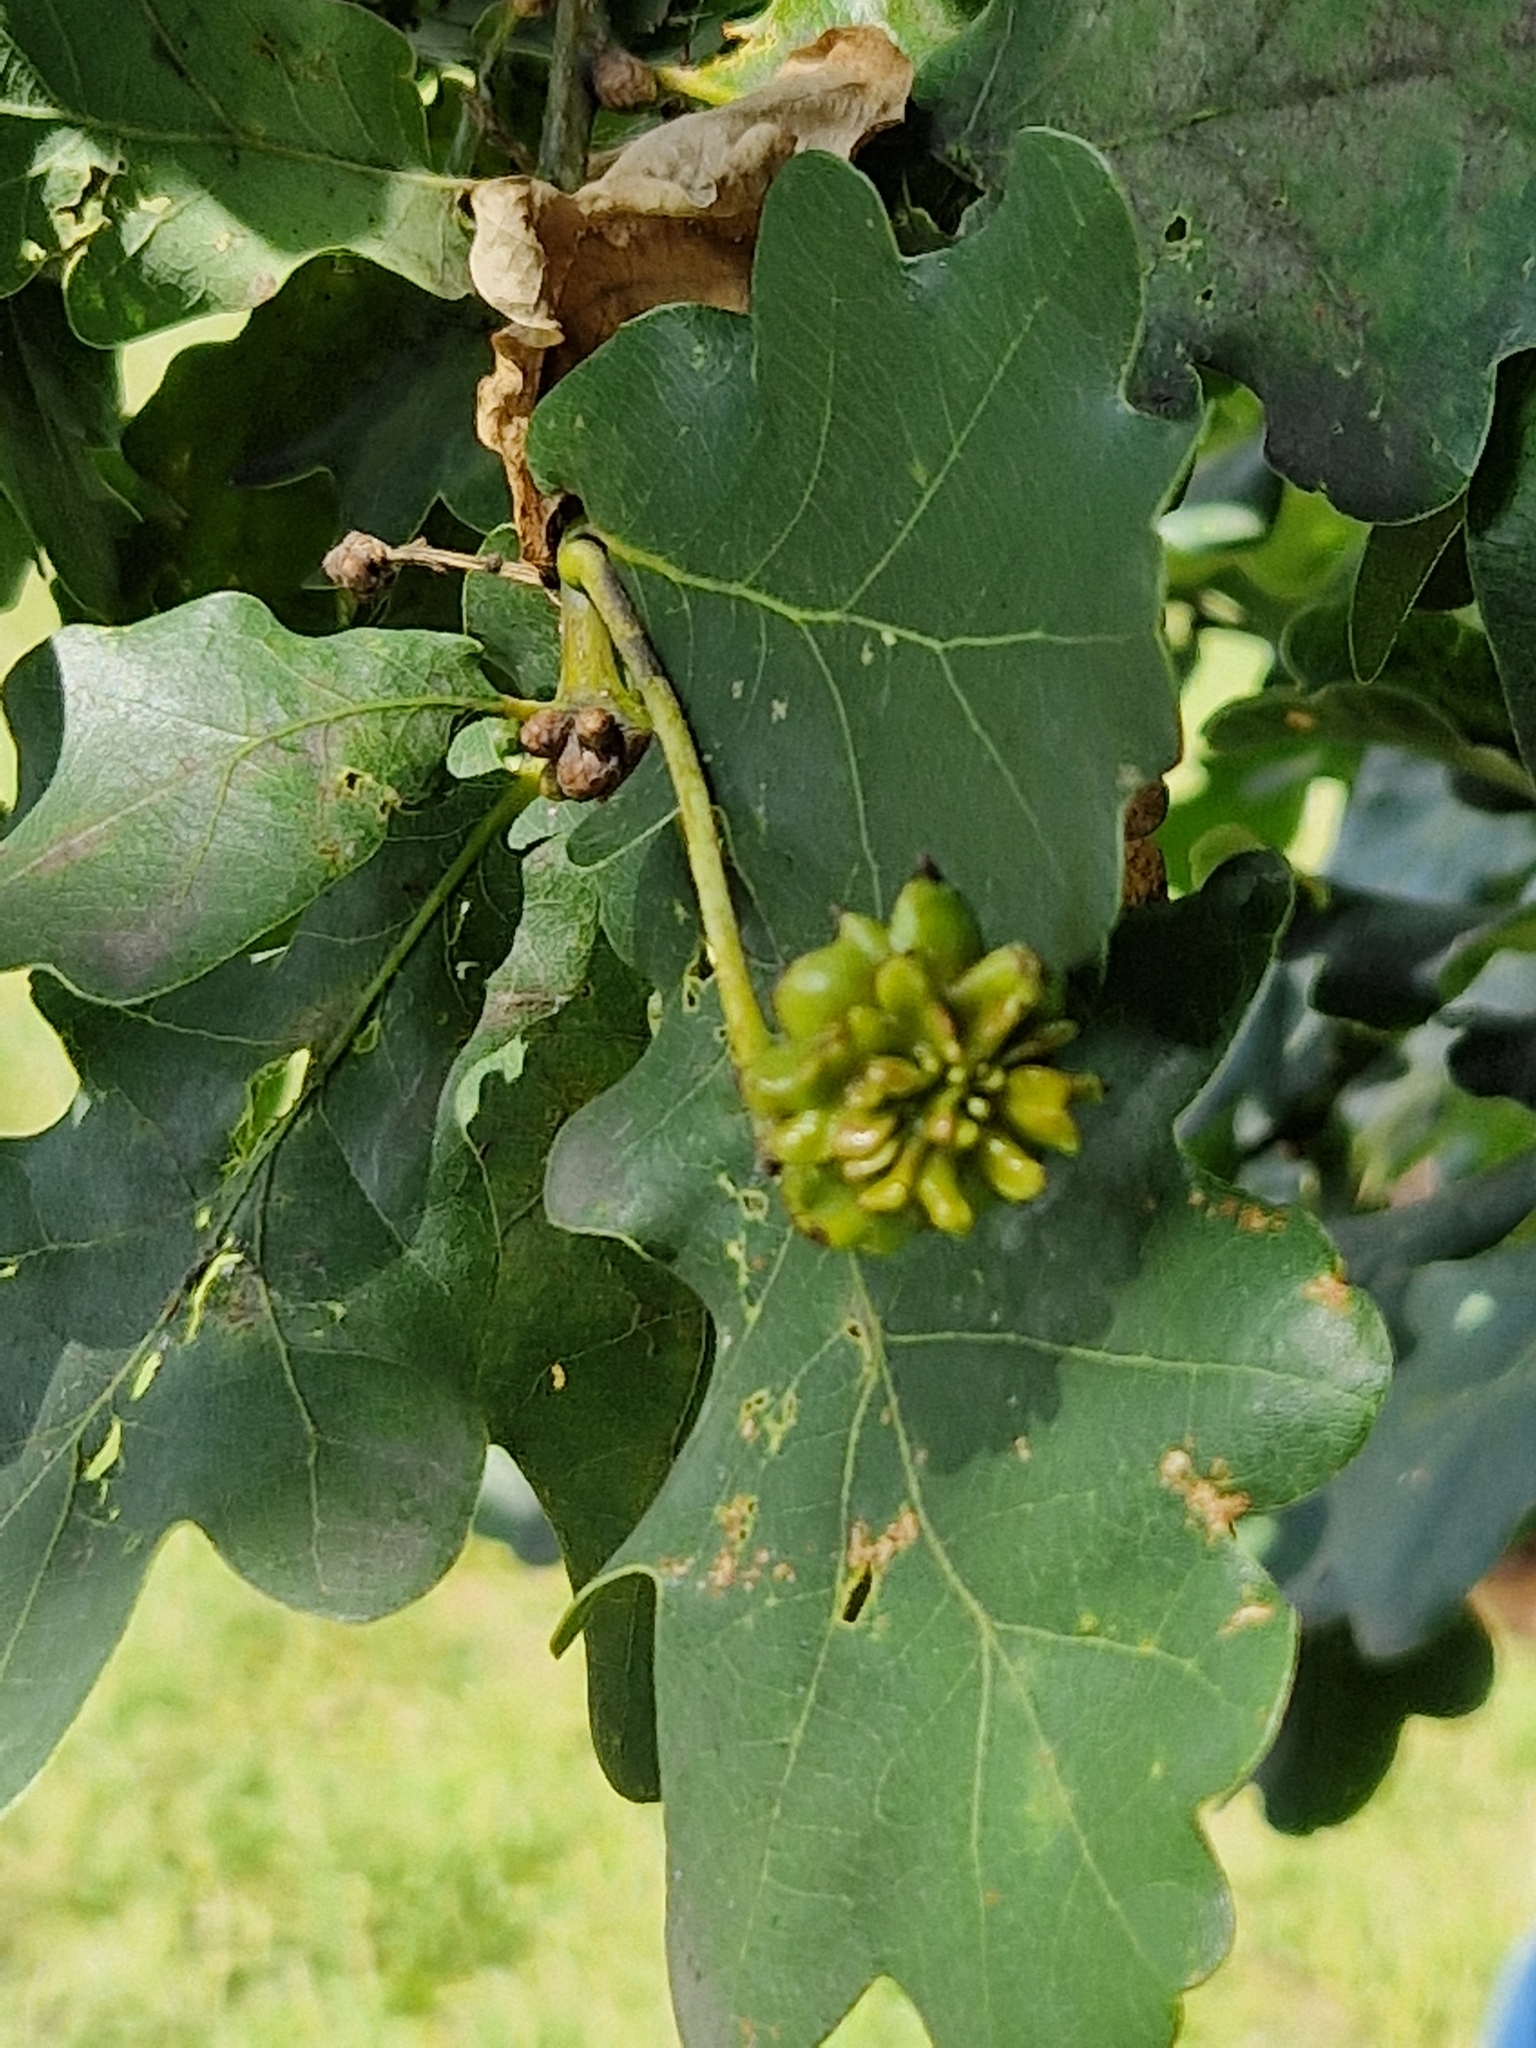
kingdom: Animalia
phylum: Arthropoda
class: Insecta
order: Hymenoptera
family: Cynipidae
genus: Andricus
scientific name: Andricus quercuscalicis
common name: Knopper gall
